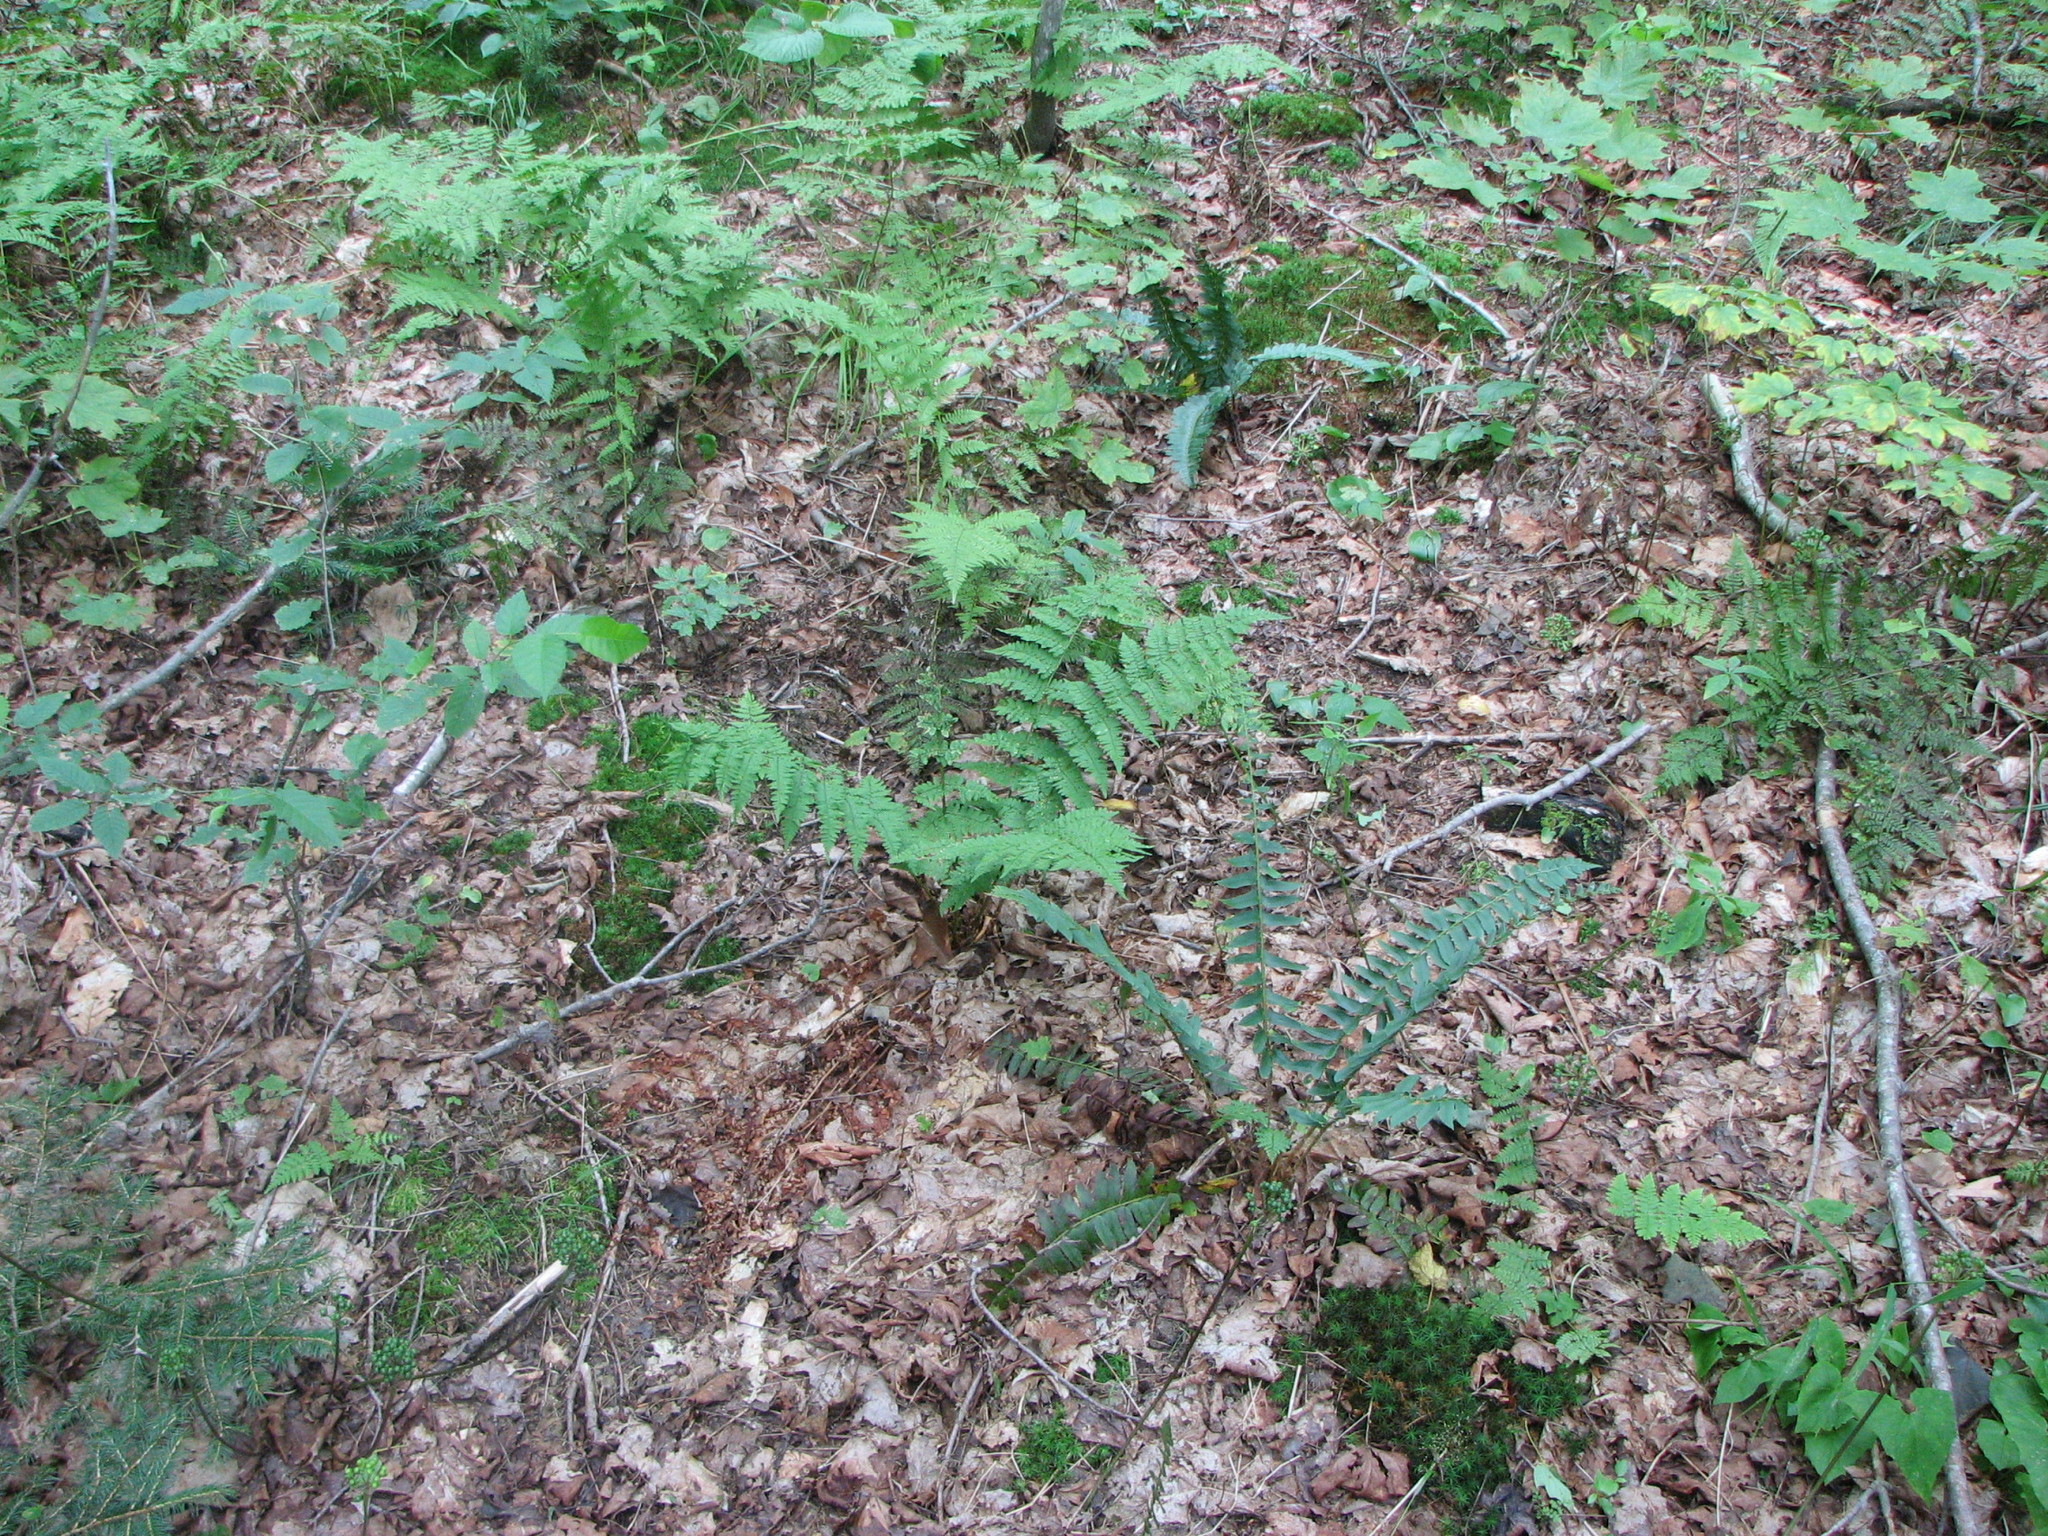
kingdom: Plantae
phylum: Tracheophyta
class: Polypodiopsida
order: Polypodiales
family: Dryopteridaceae
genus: Polystichum
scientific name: Polystichum acrostichoides
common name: Christmas fern
